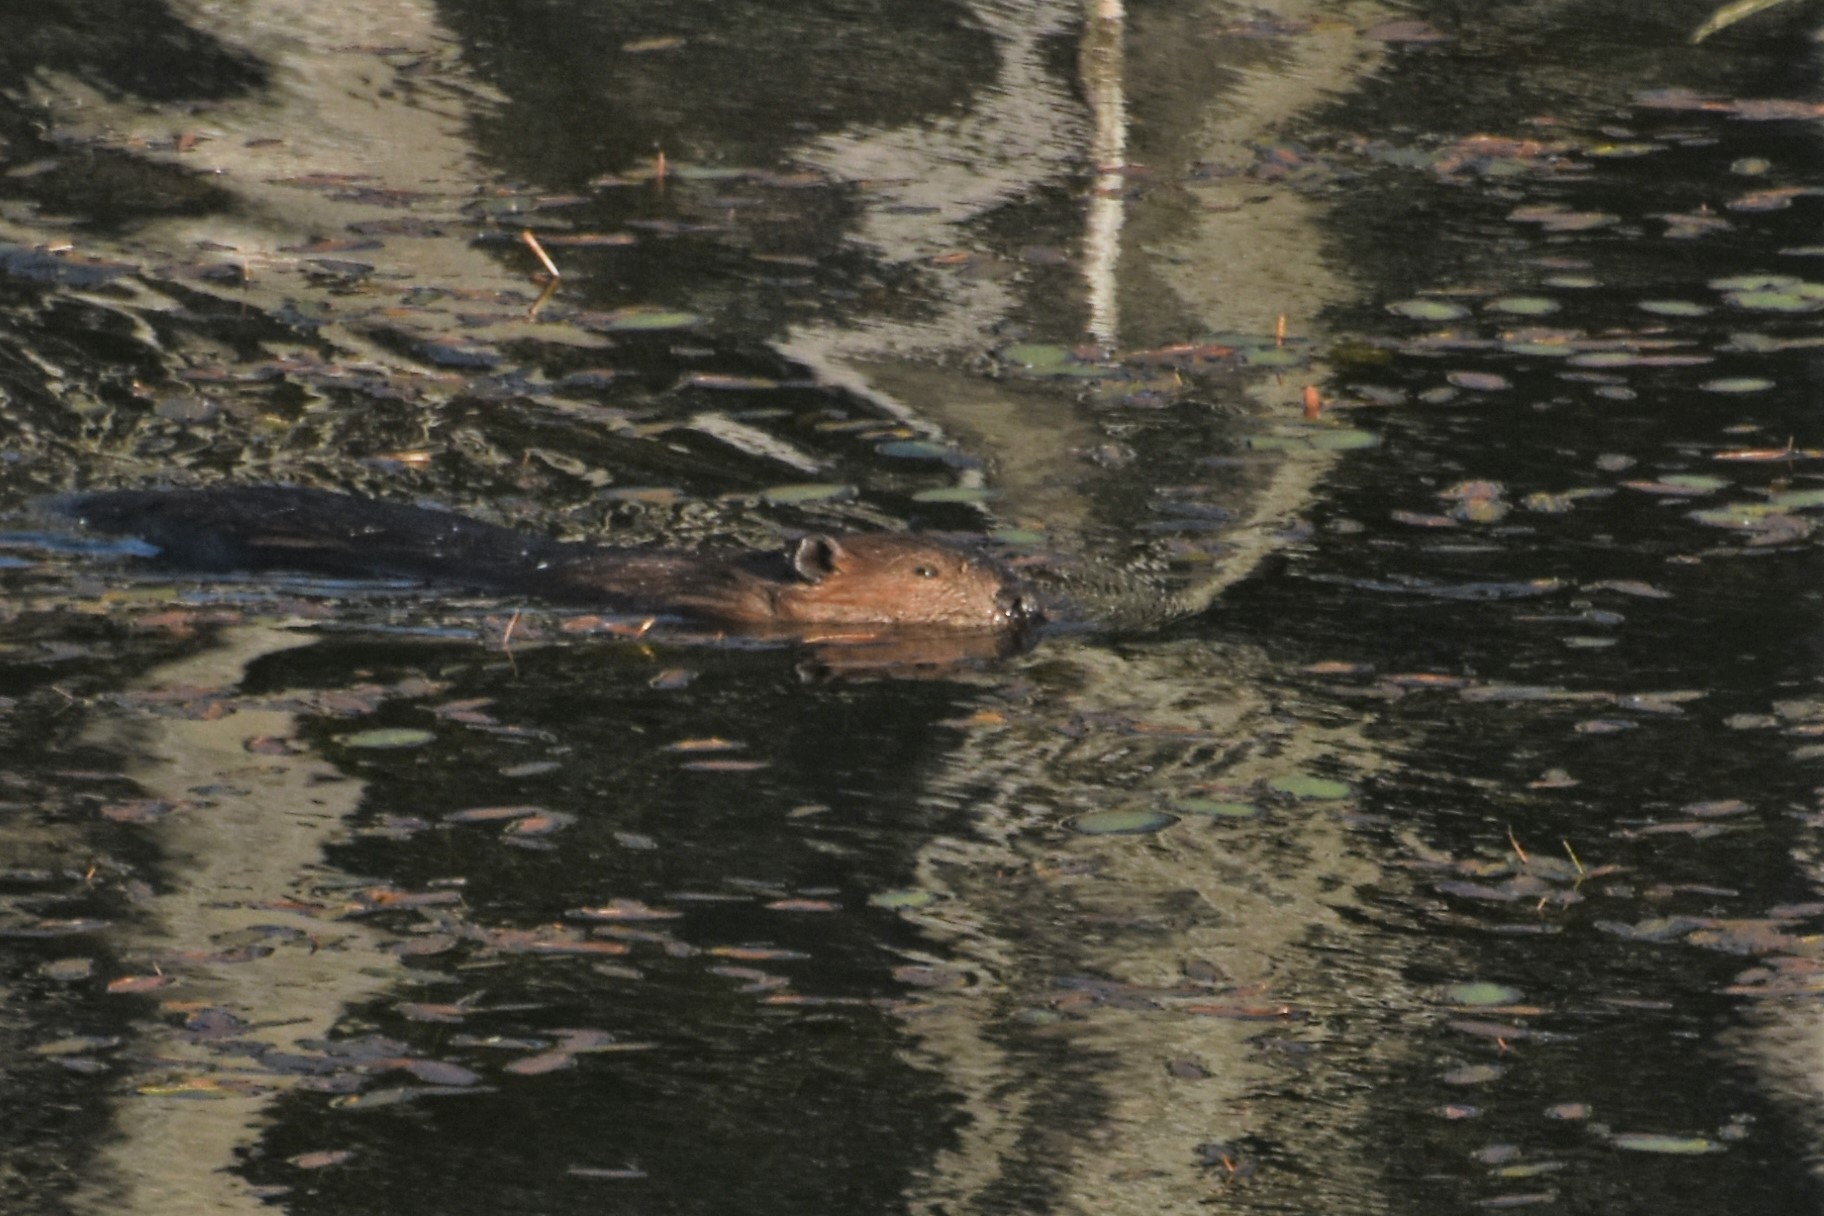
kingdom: Animalia
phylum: Chordata
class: Mammalia
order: Rodentia
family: Castoridae
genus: Castor
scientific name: Castor canadensis
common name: American beaver
